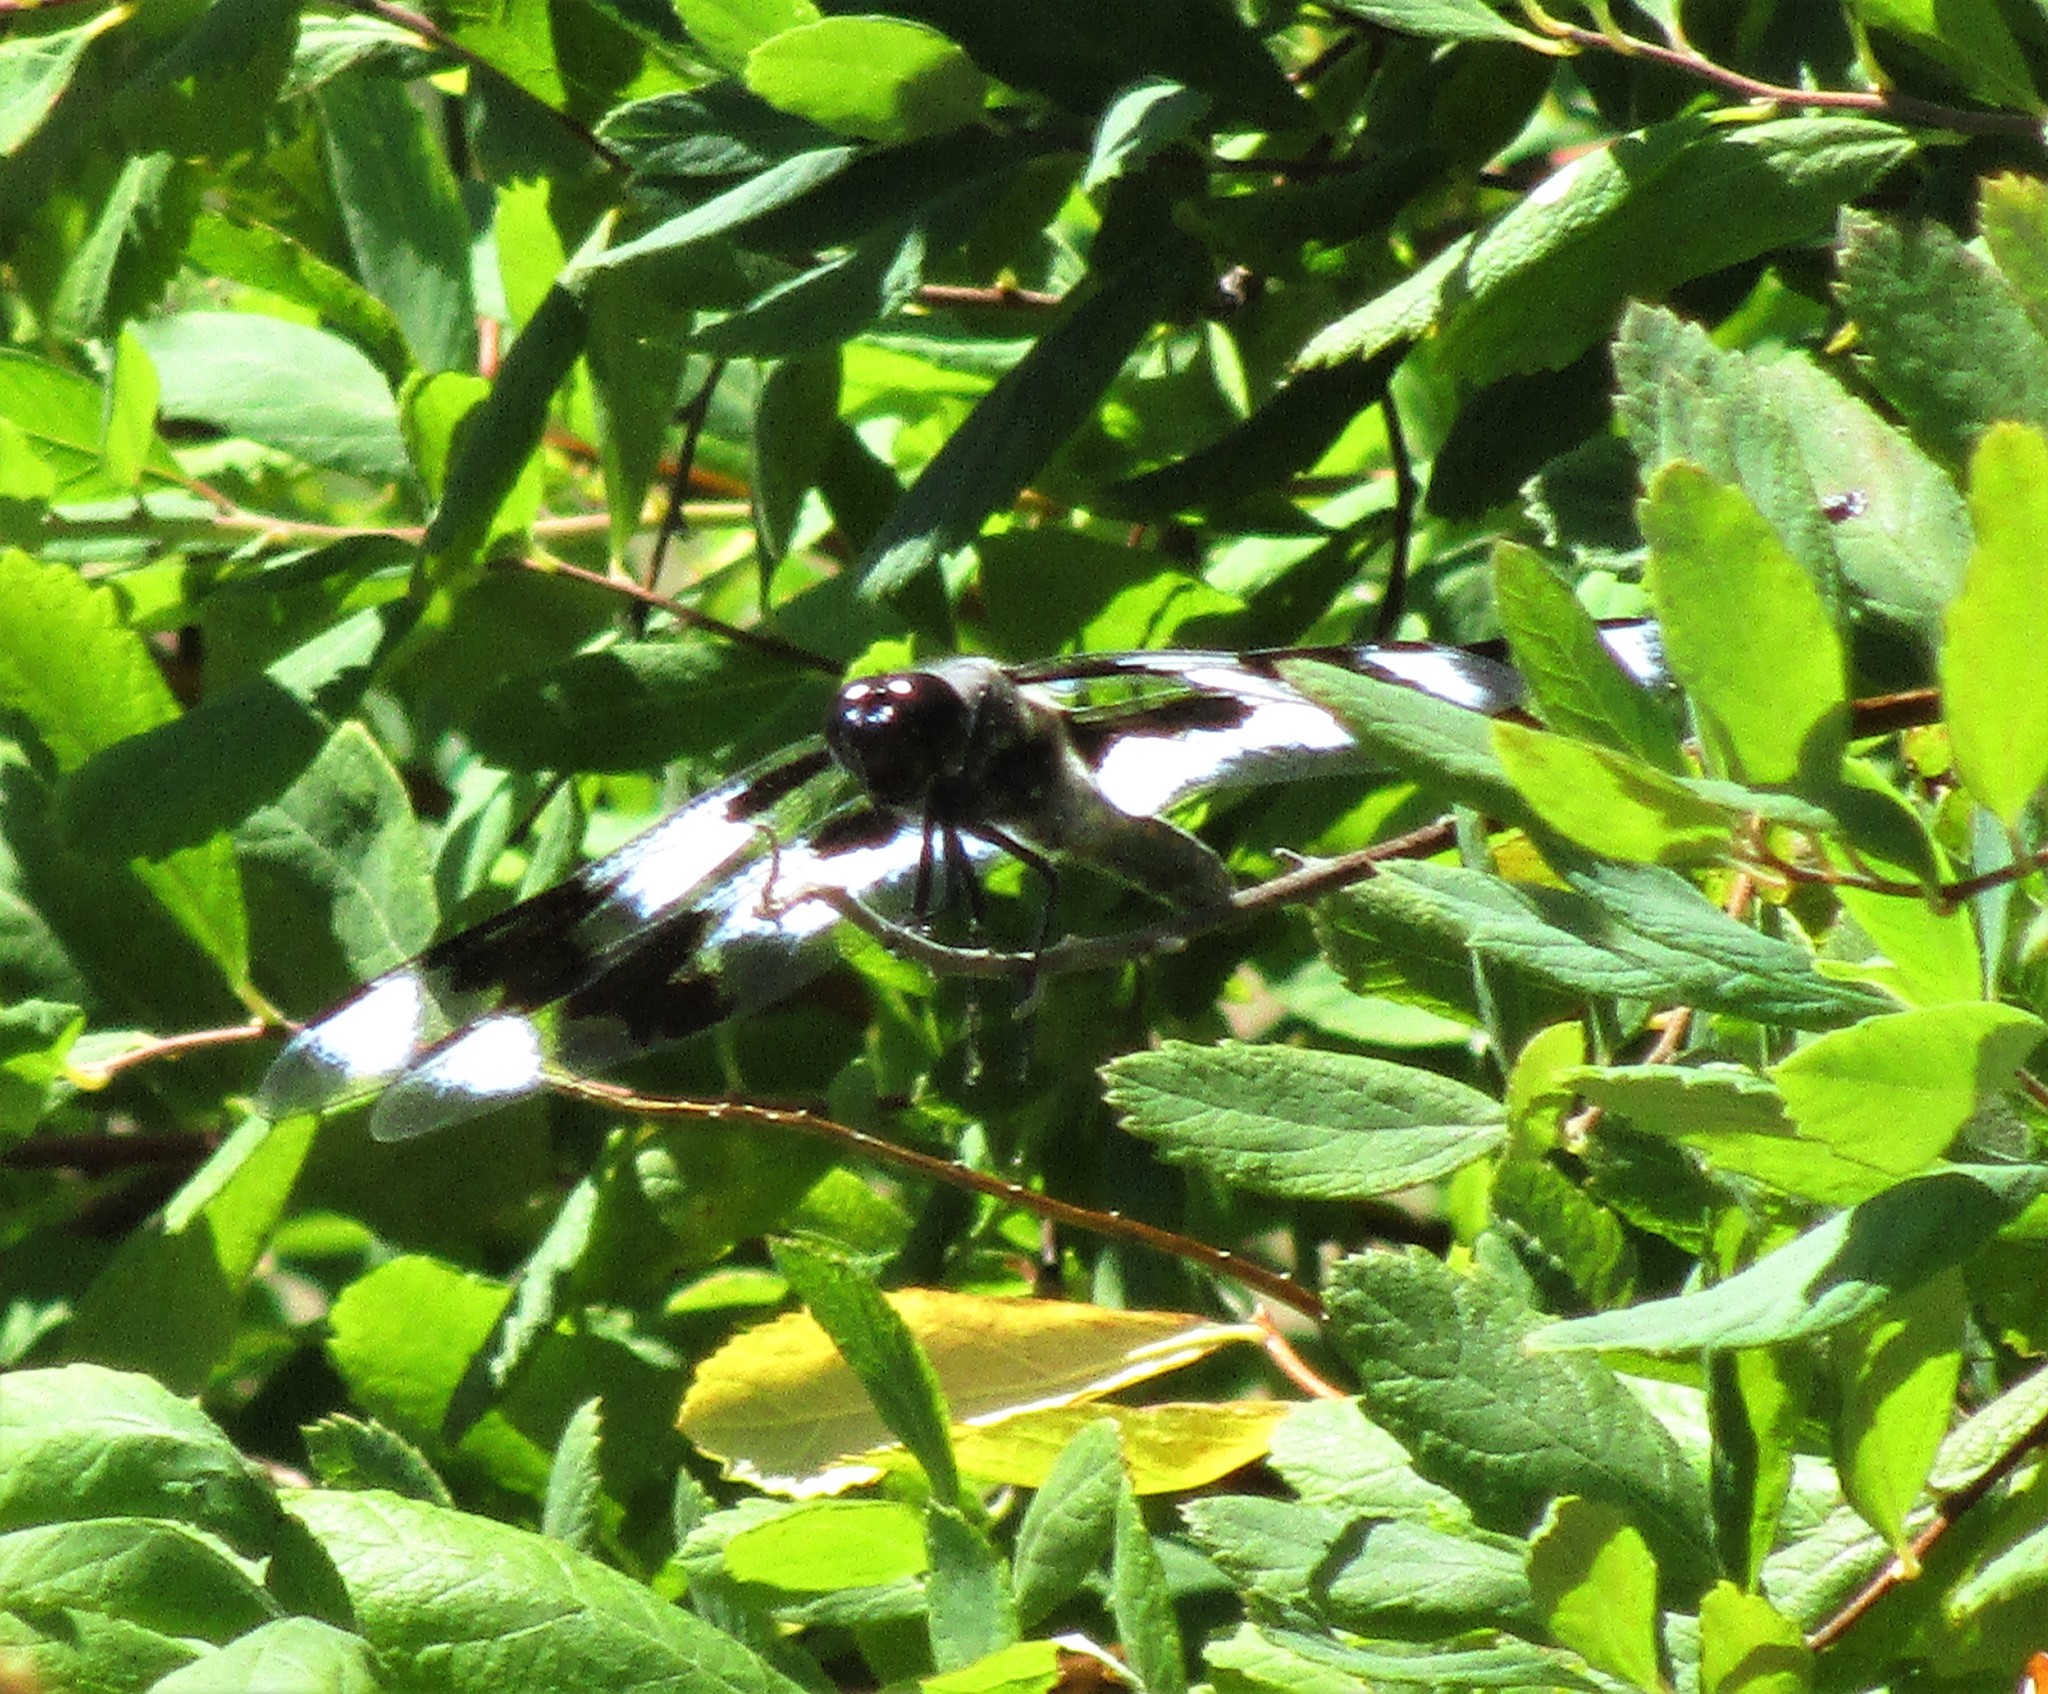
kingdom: Animalia
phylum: Arthropoda
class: Insecta
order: Odonata
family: Libellulidae
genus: Libellula
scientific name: Libellula forensis
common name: Eight-spotted skimmer
